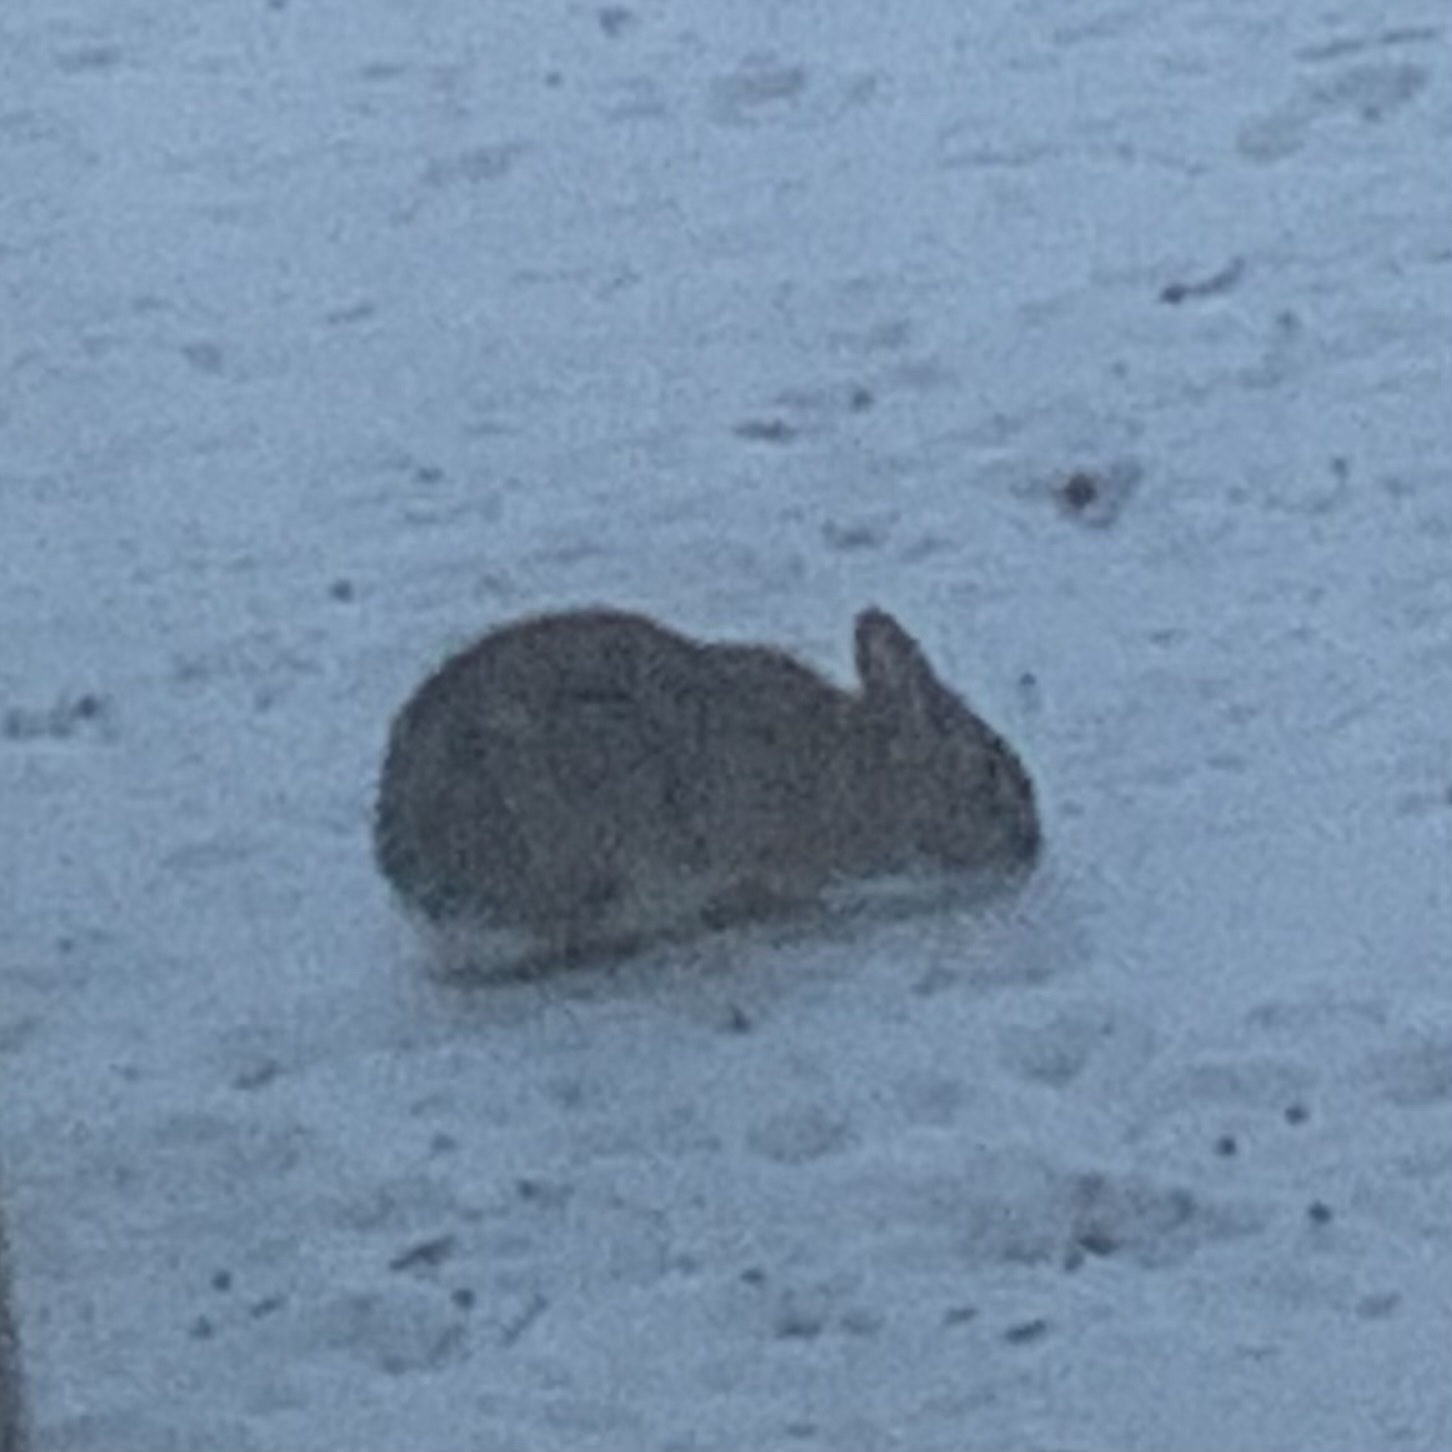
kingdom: Animalia
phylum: Chordata
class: Mammalia
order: Lagomorpha
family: Leporidae
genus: Sylvilagus
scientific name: Sylvilagus floridanus
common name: Eastern cottontail
